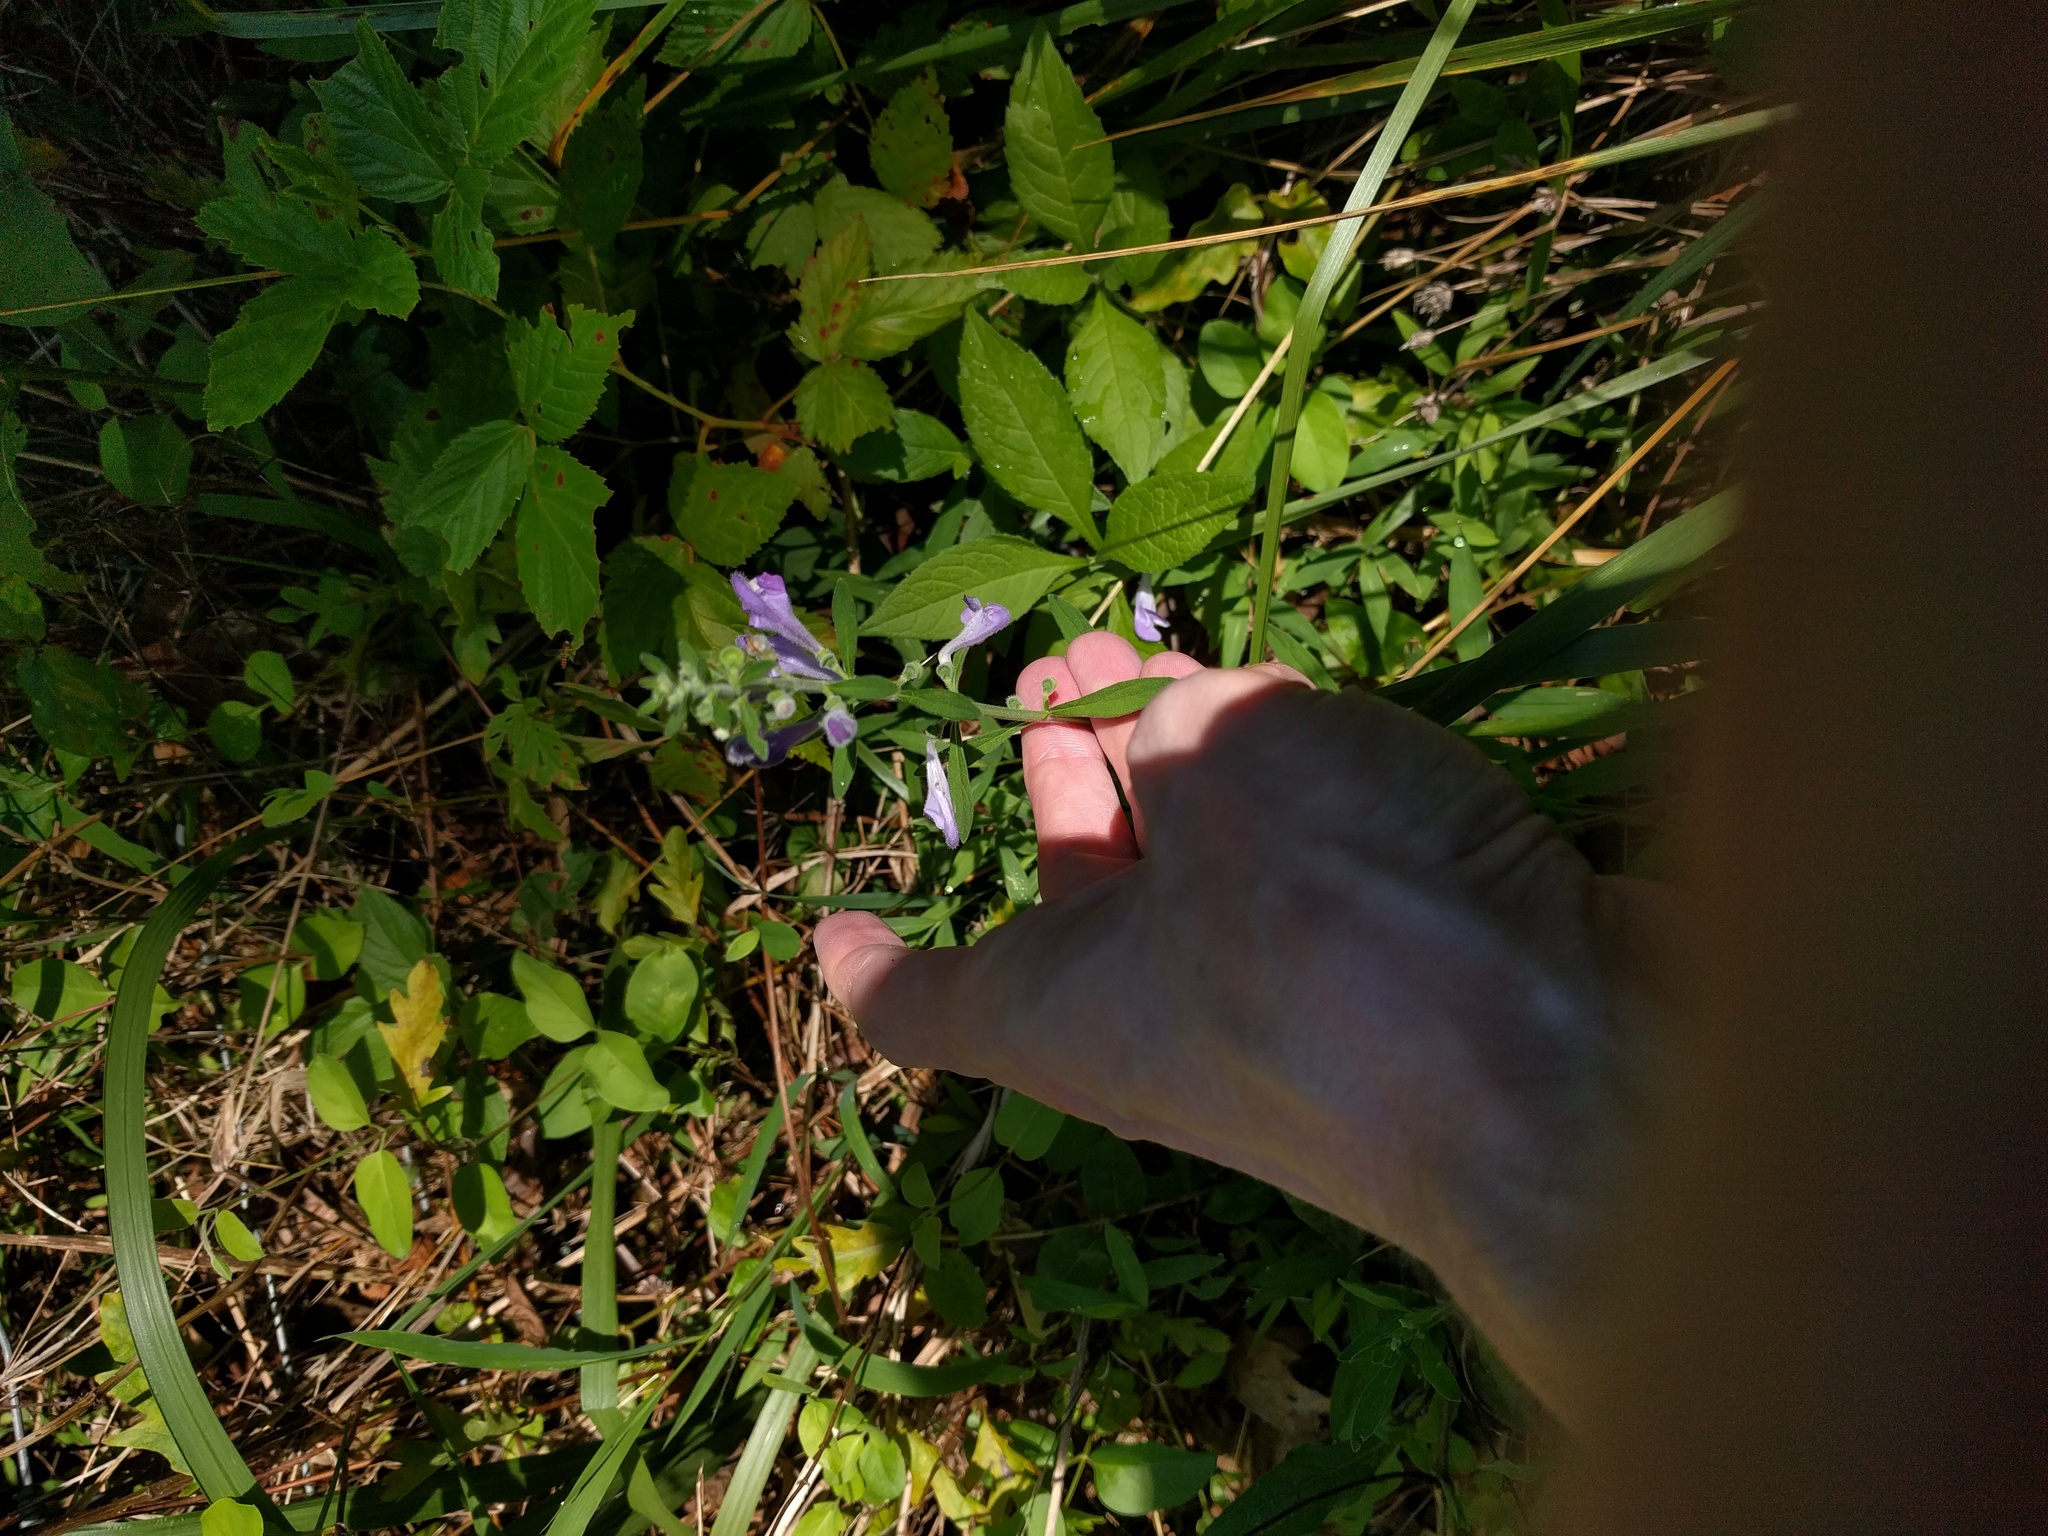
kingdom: Plantae
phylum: Tracheophyta
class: Magnoliopsida
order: Lamiales
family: Lamiaceae
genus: Scutellaria
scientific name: Scutellaria integrifolia
